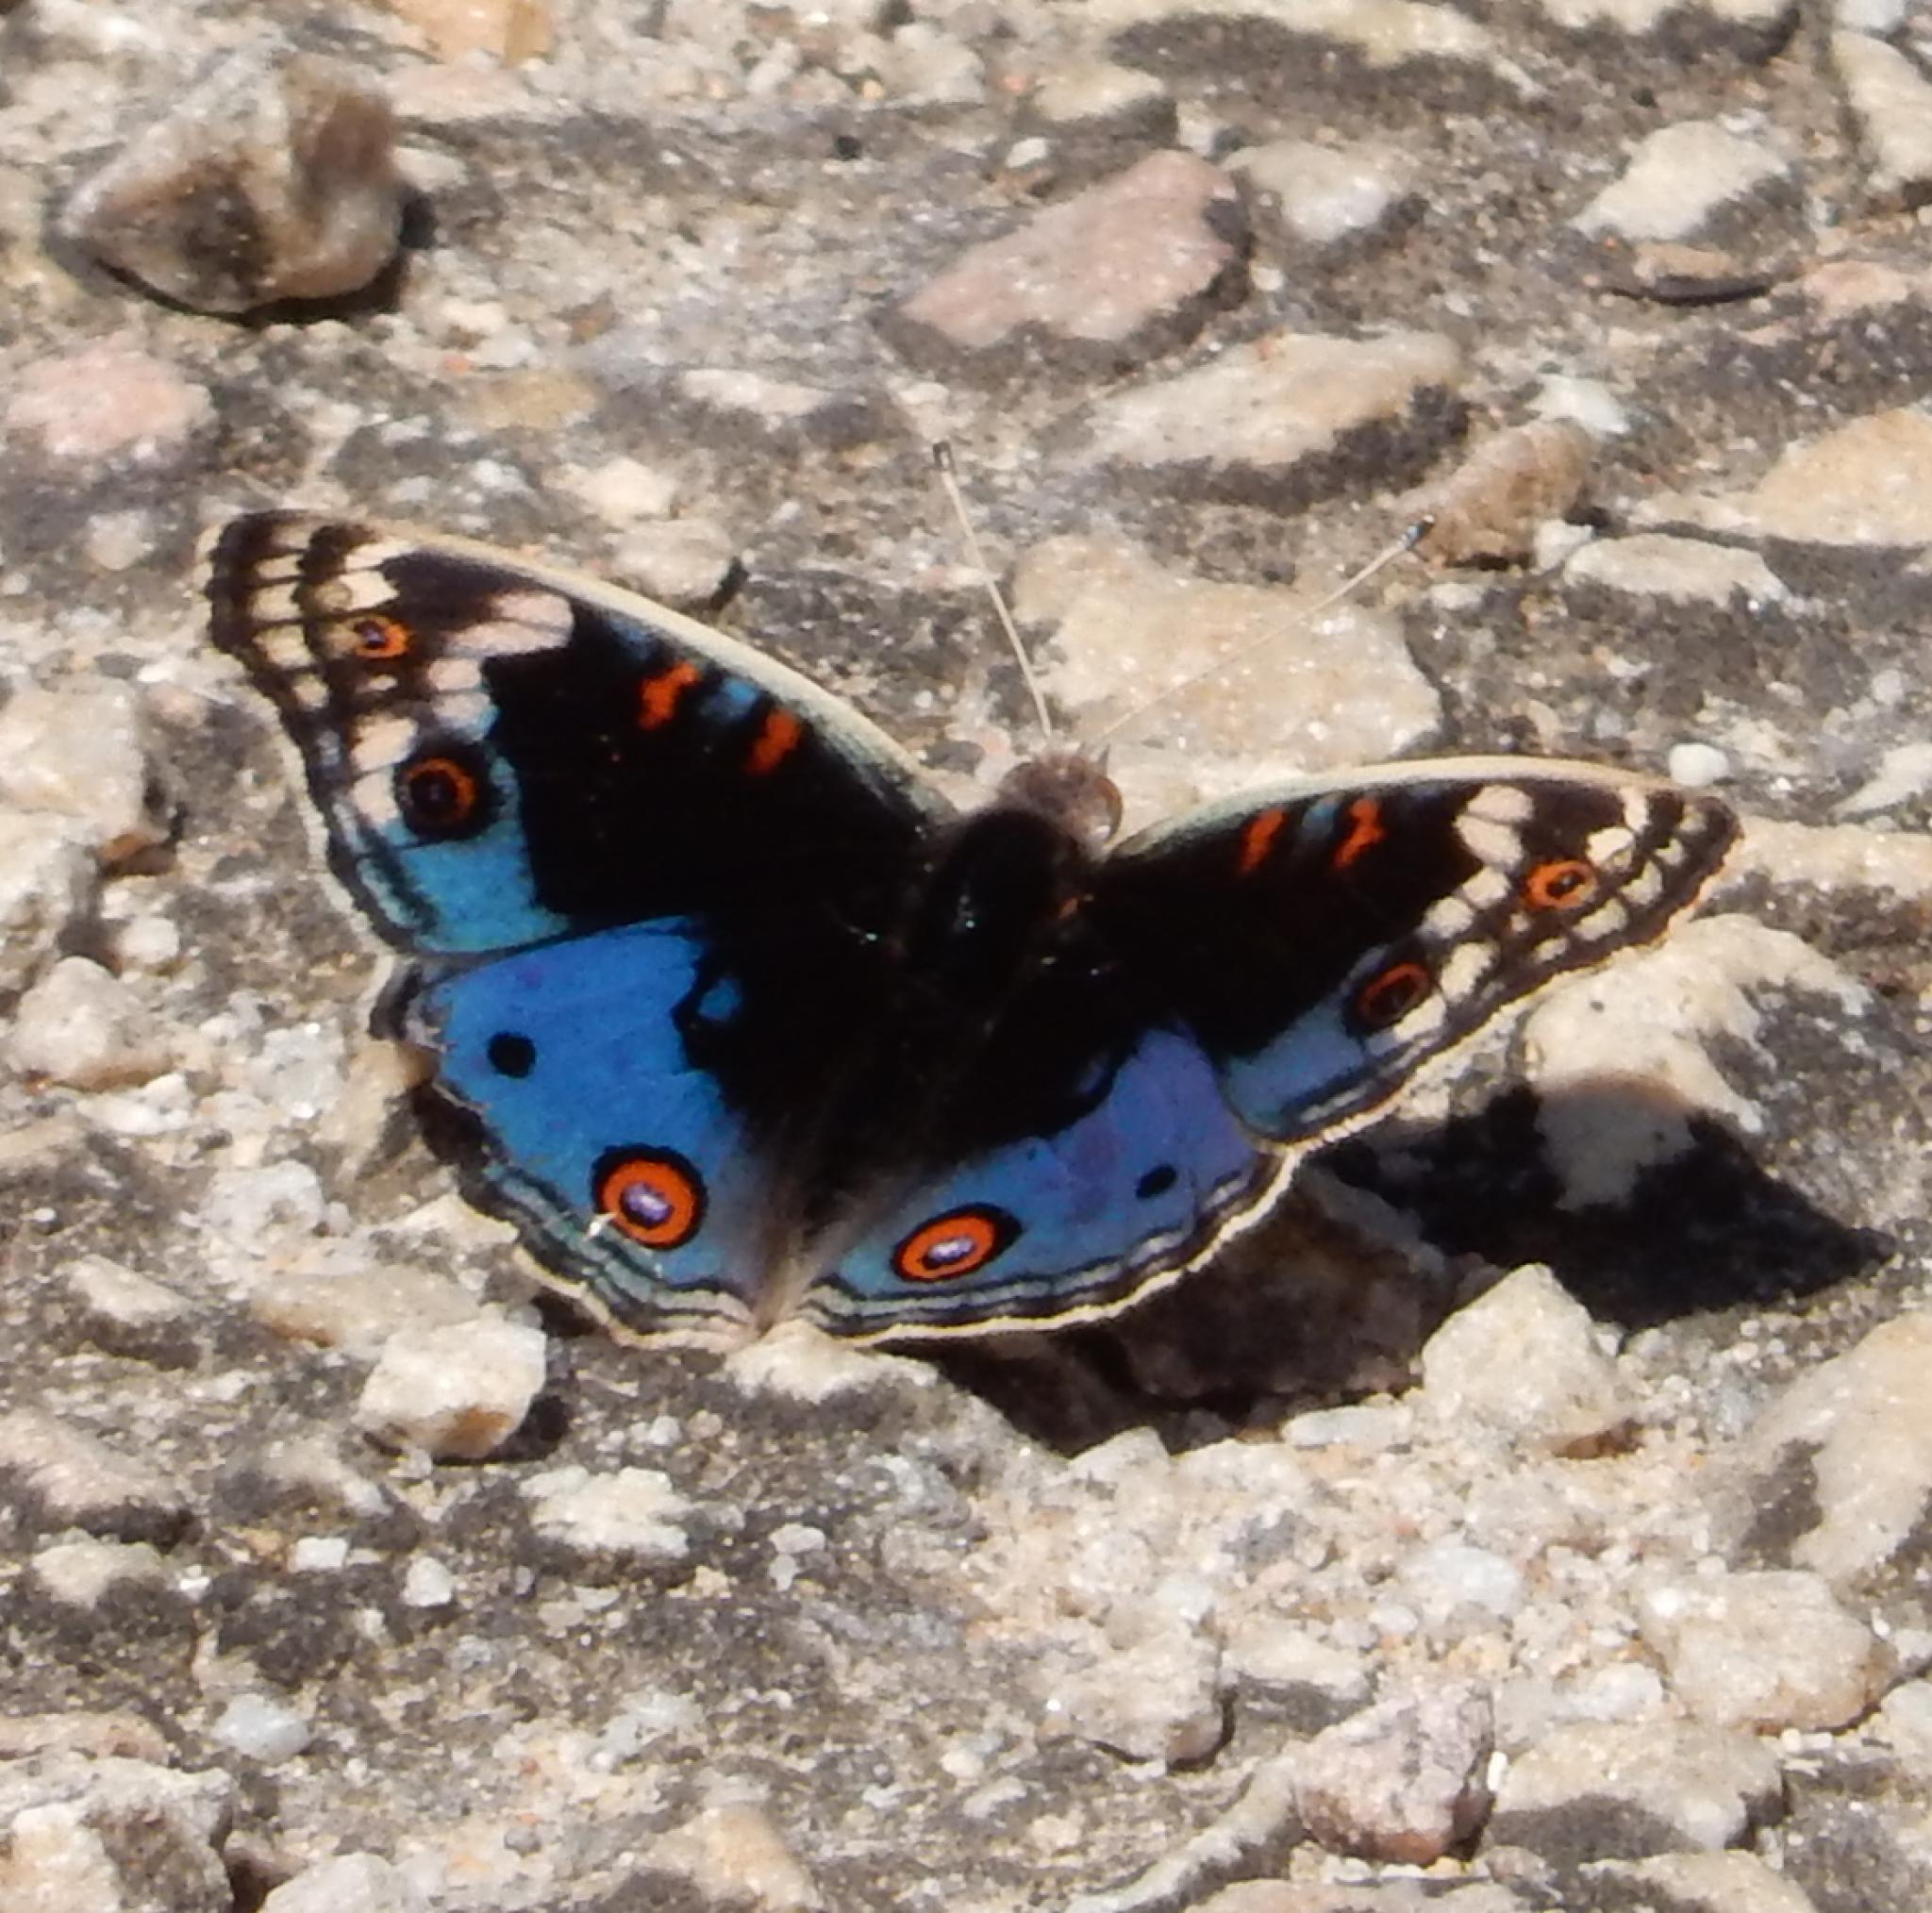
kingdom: Animalia
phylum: Arthropoda
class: Insecta
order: Lepidoptera
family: Nymphalidae
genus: Junonia
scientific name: Junonia orithya
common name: Blue pansy
